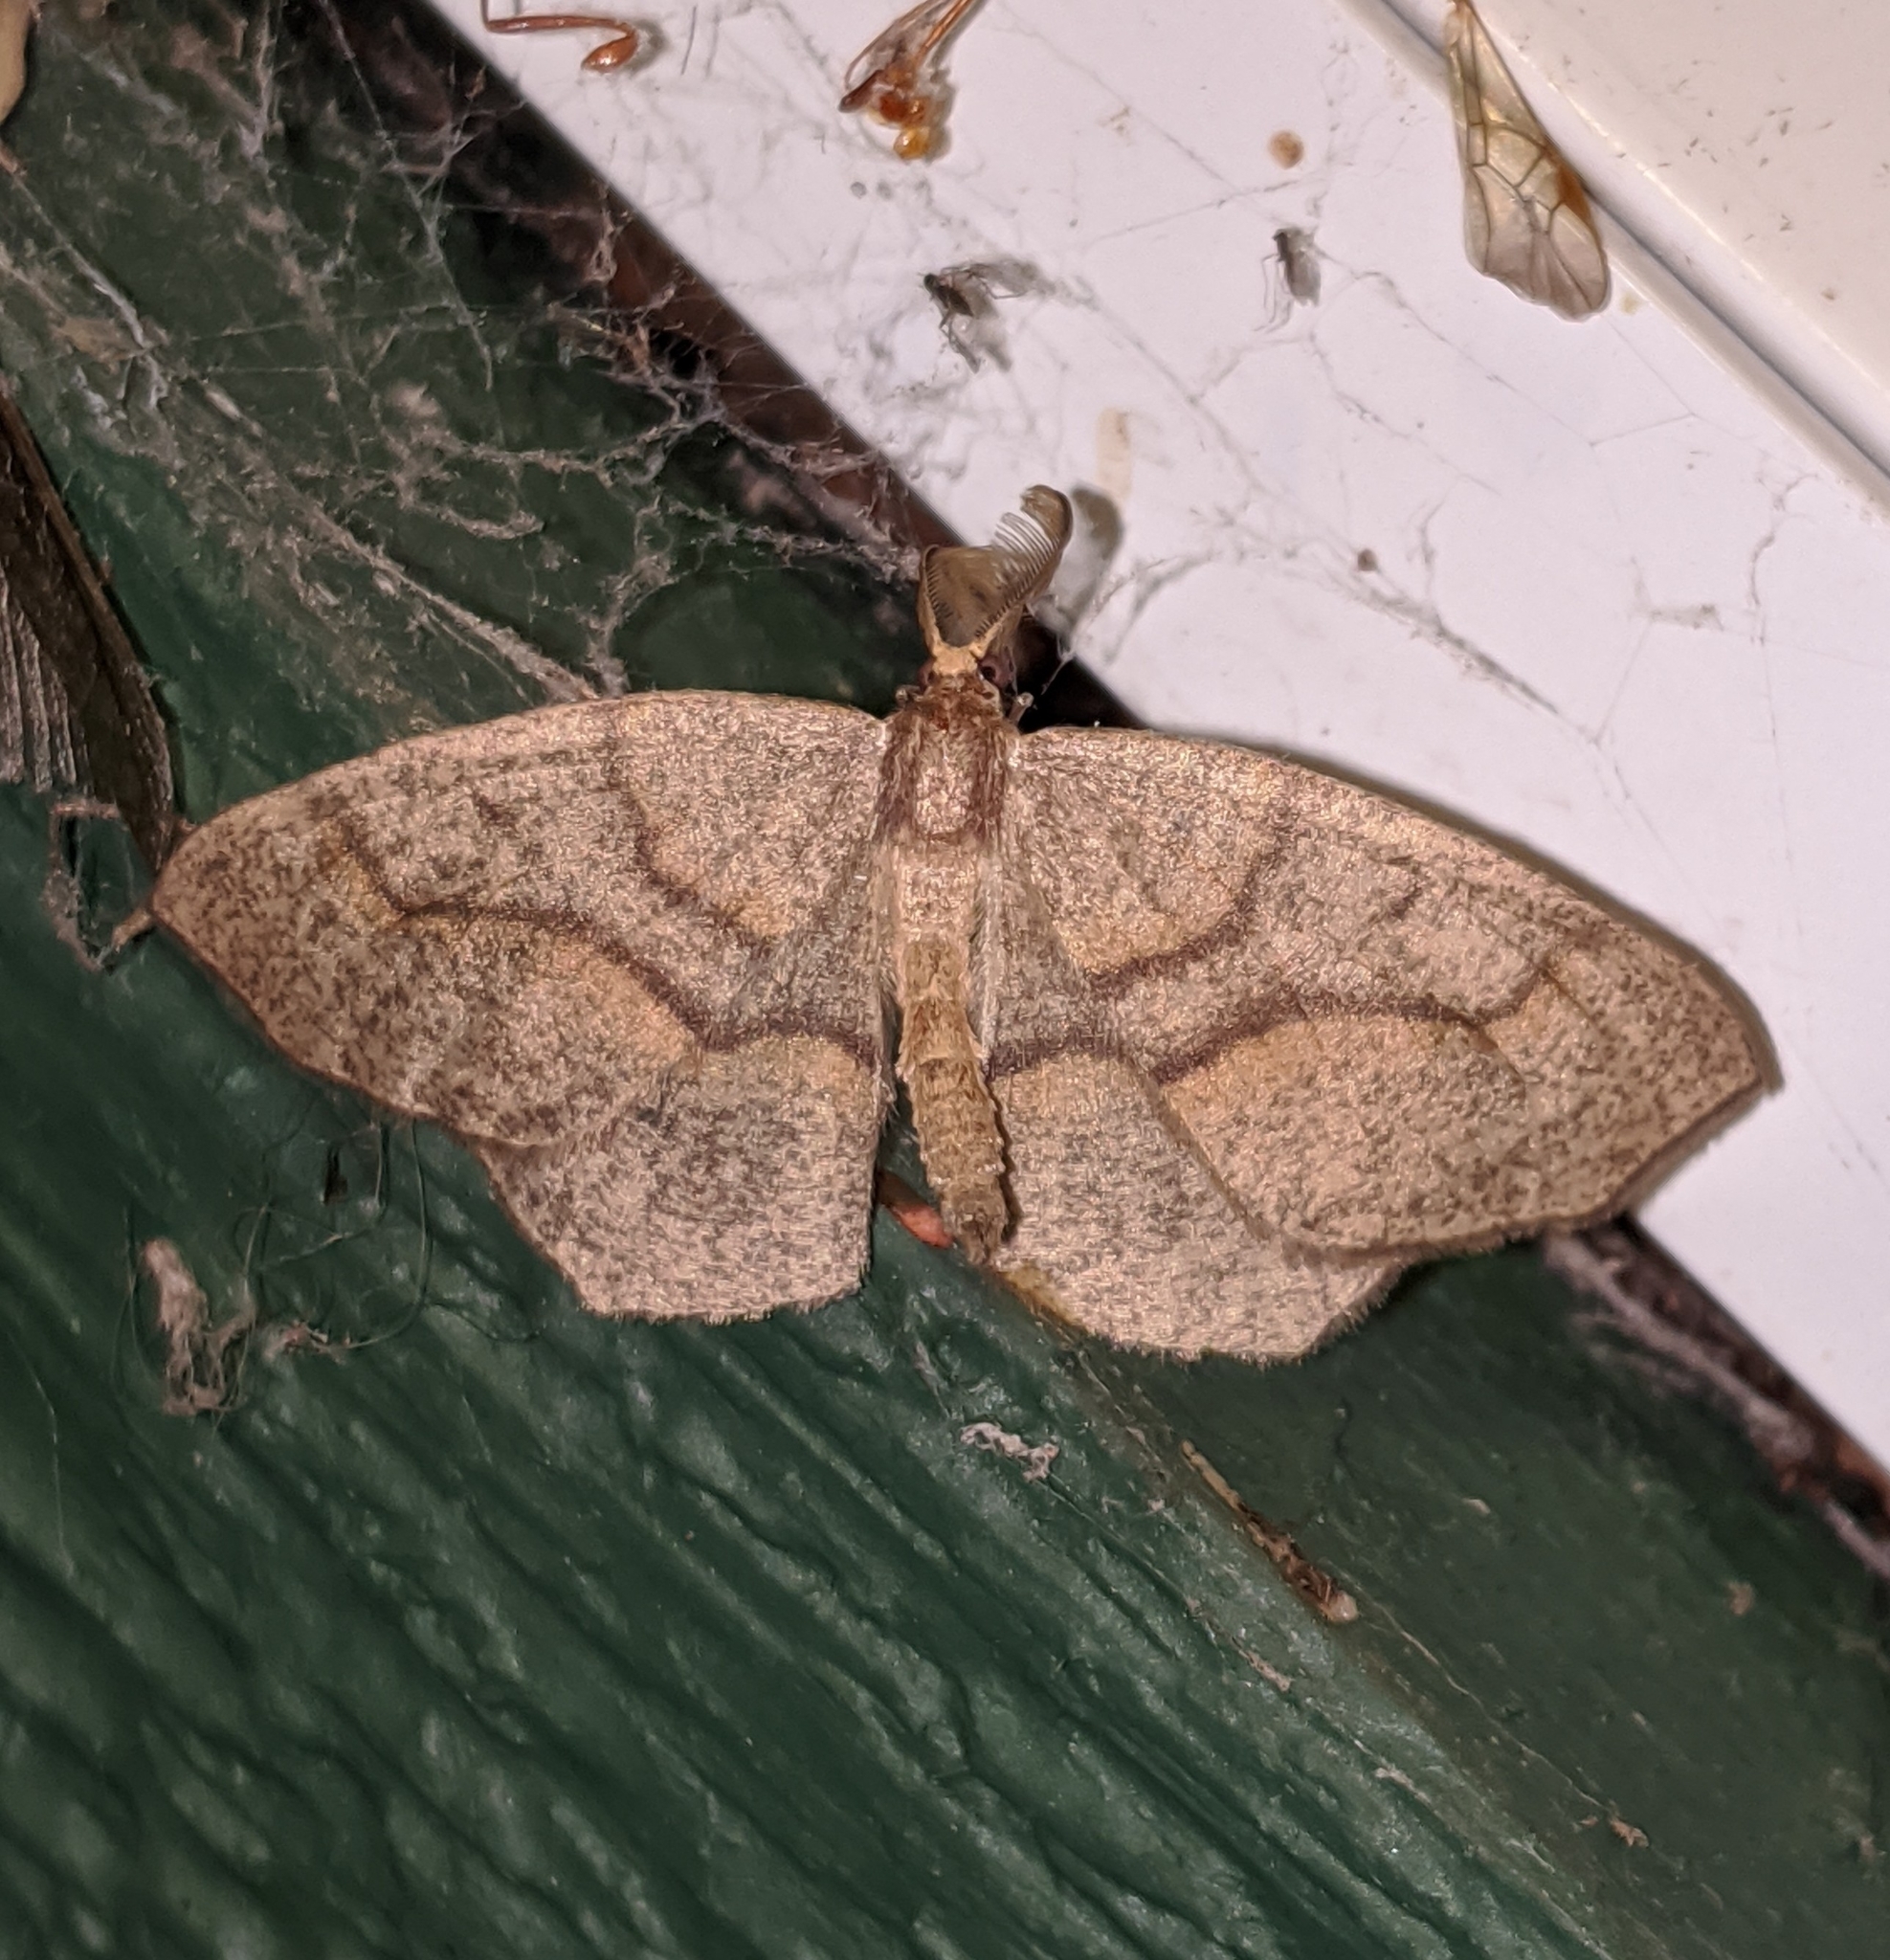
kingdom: Animalia
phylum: Arthropoda
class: Insecta
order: Lepidoptera
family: Geometridae
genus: Lambdina
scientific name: Lambdina fiscellaria
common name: Hemlock looper
